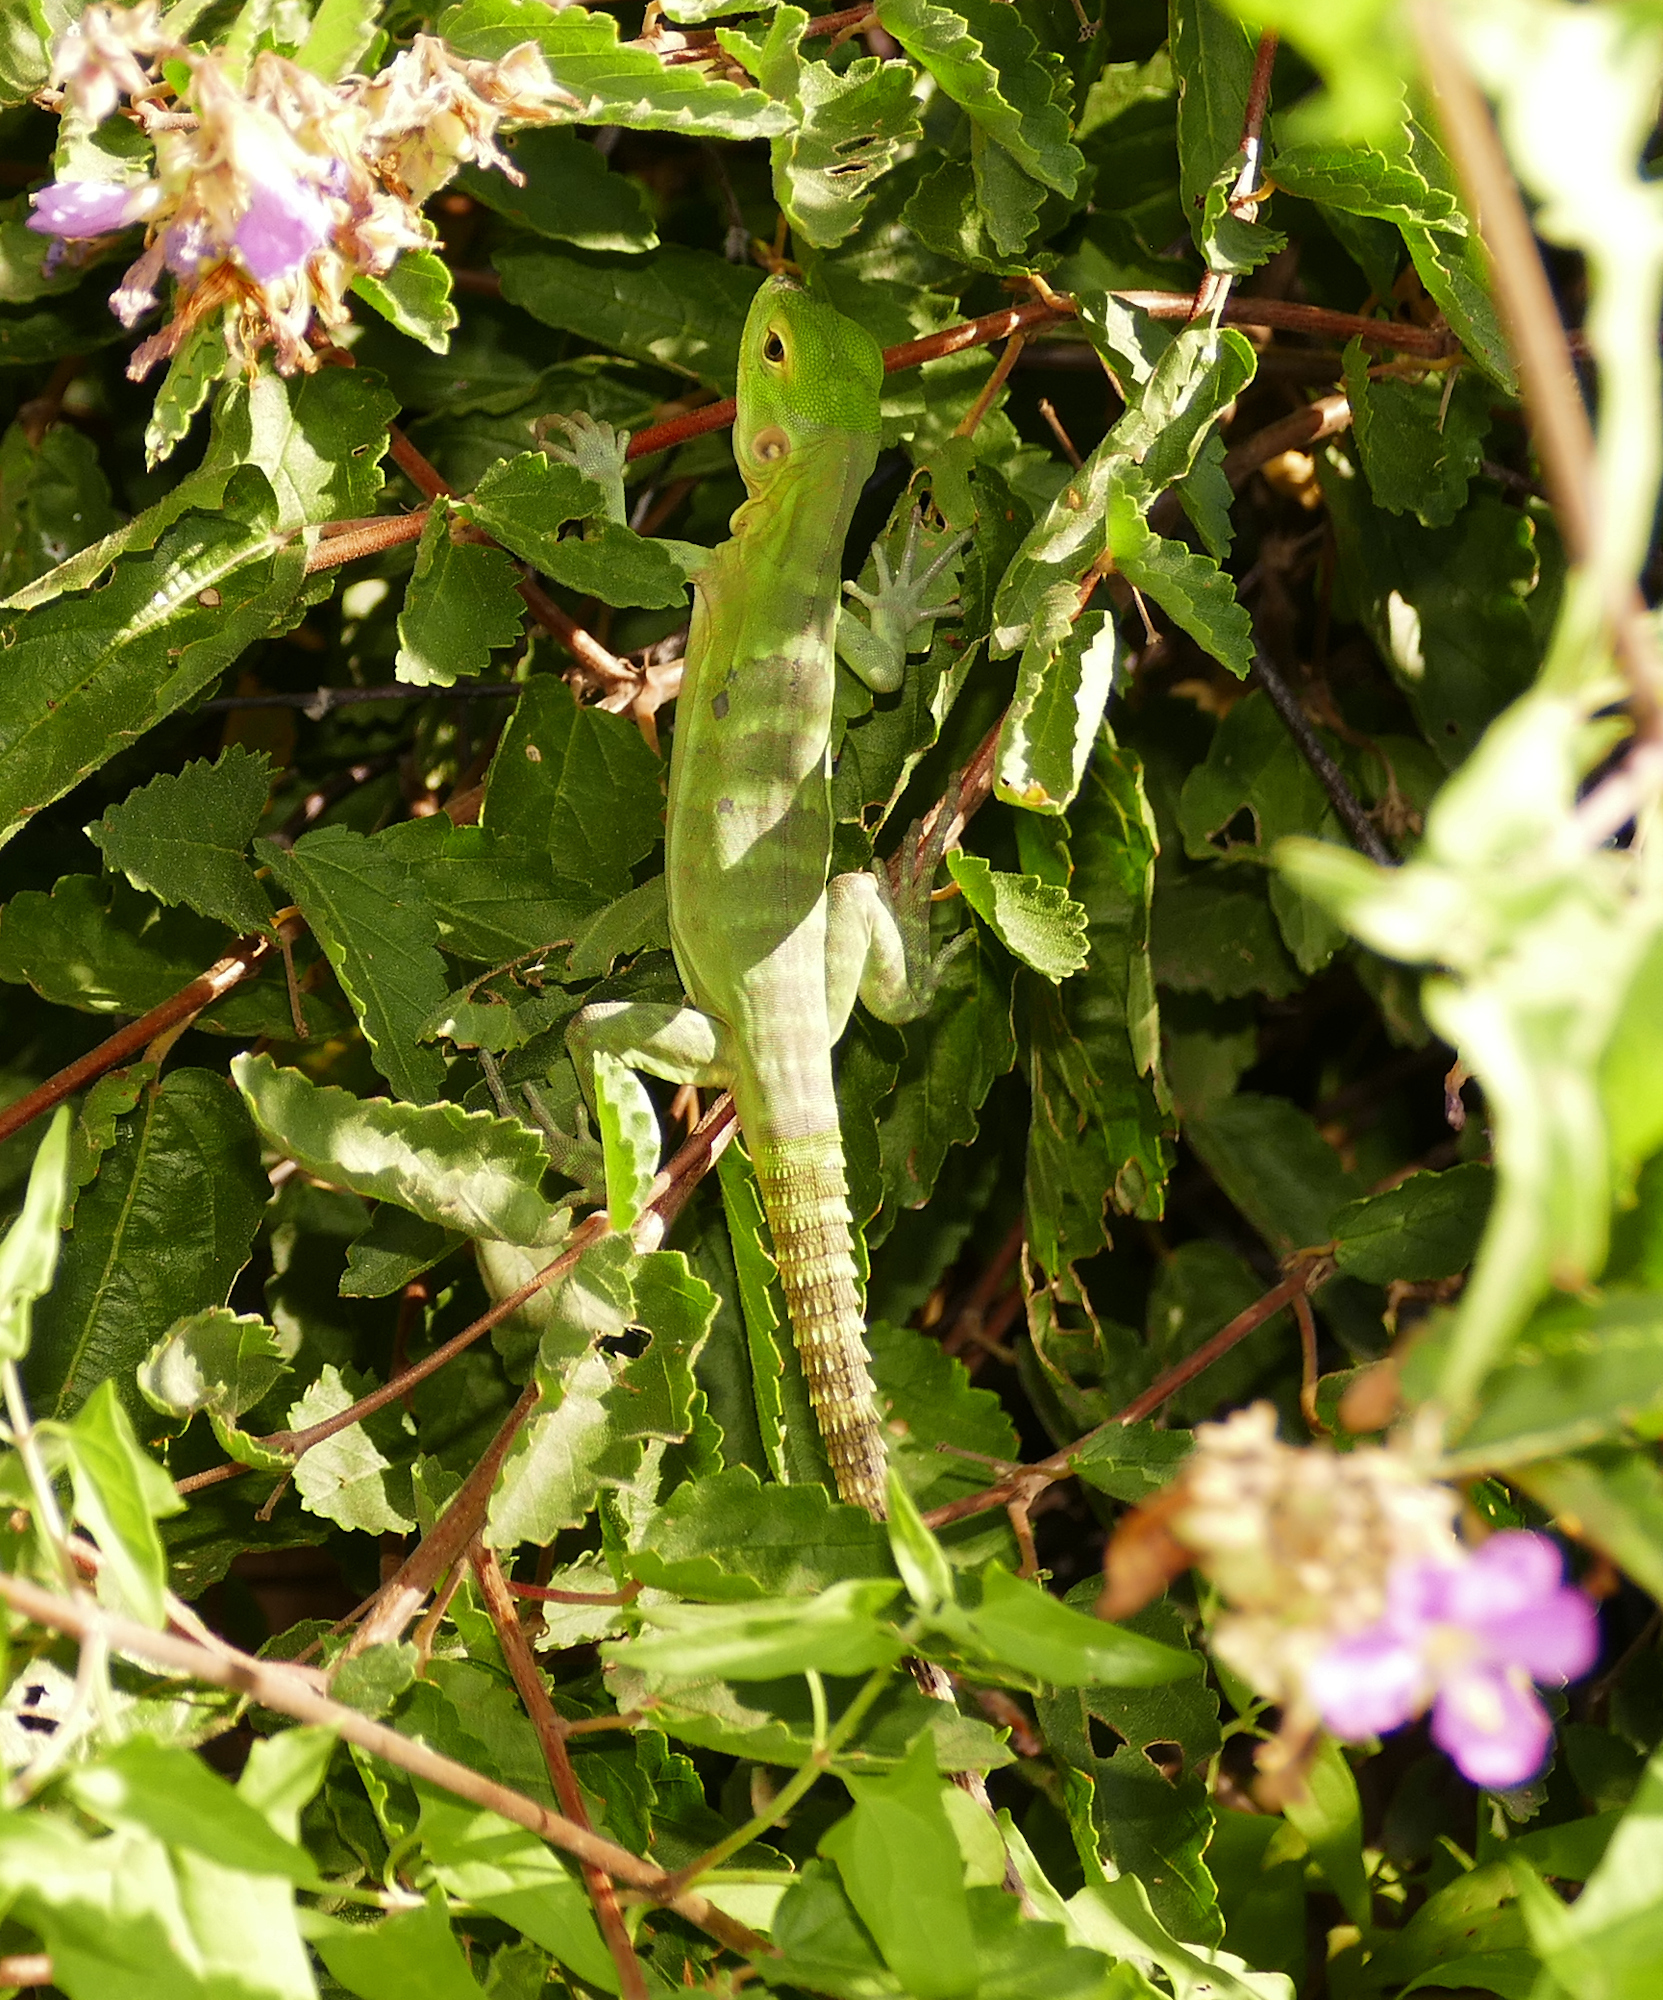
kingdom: Animalia
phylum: Chordata
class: Squamata
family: Iguanidae
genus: Ctenosaura
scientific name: Ctenosaura
